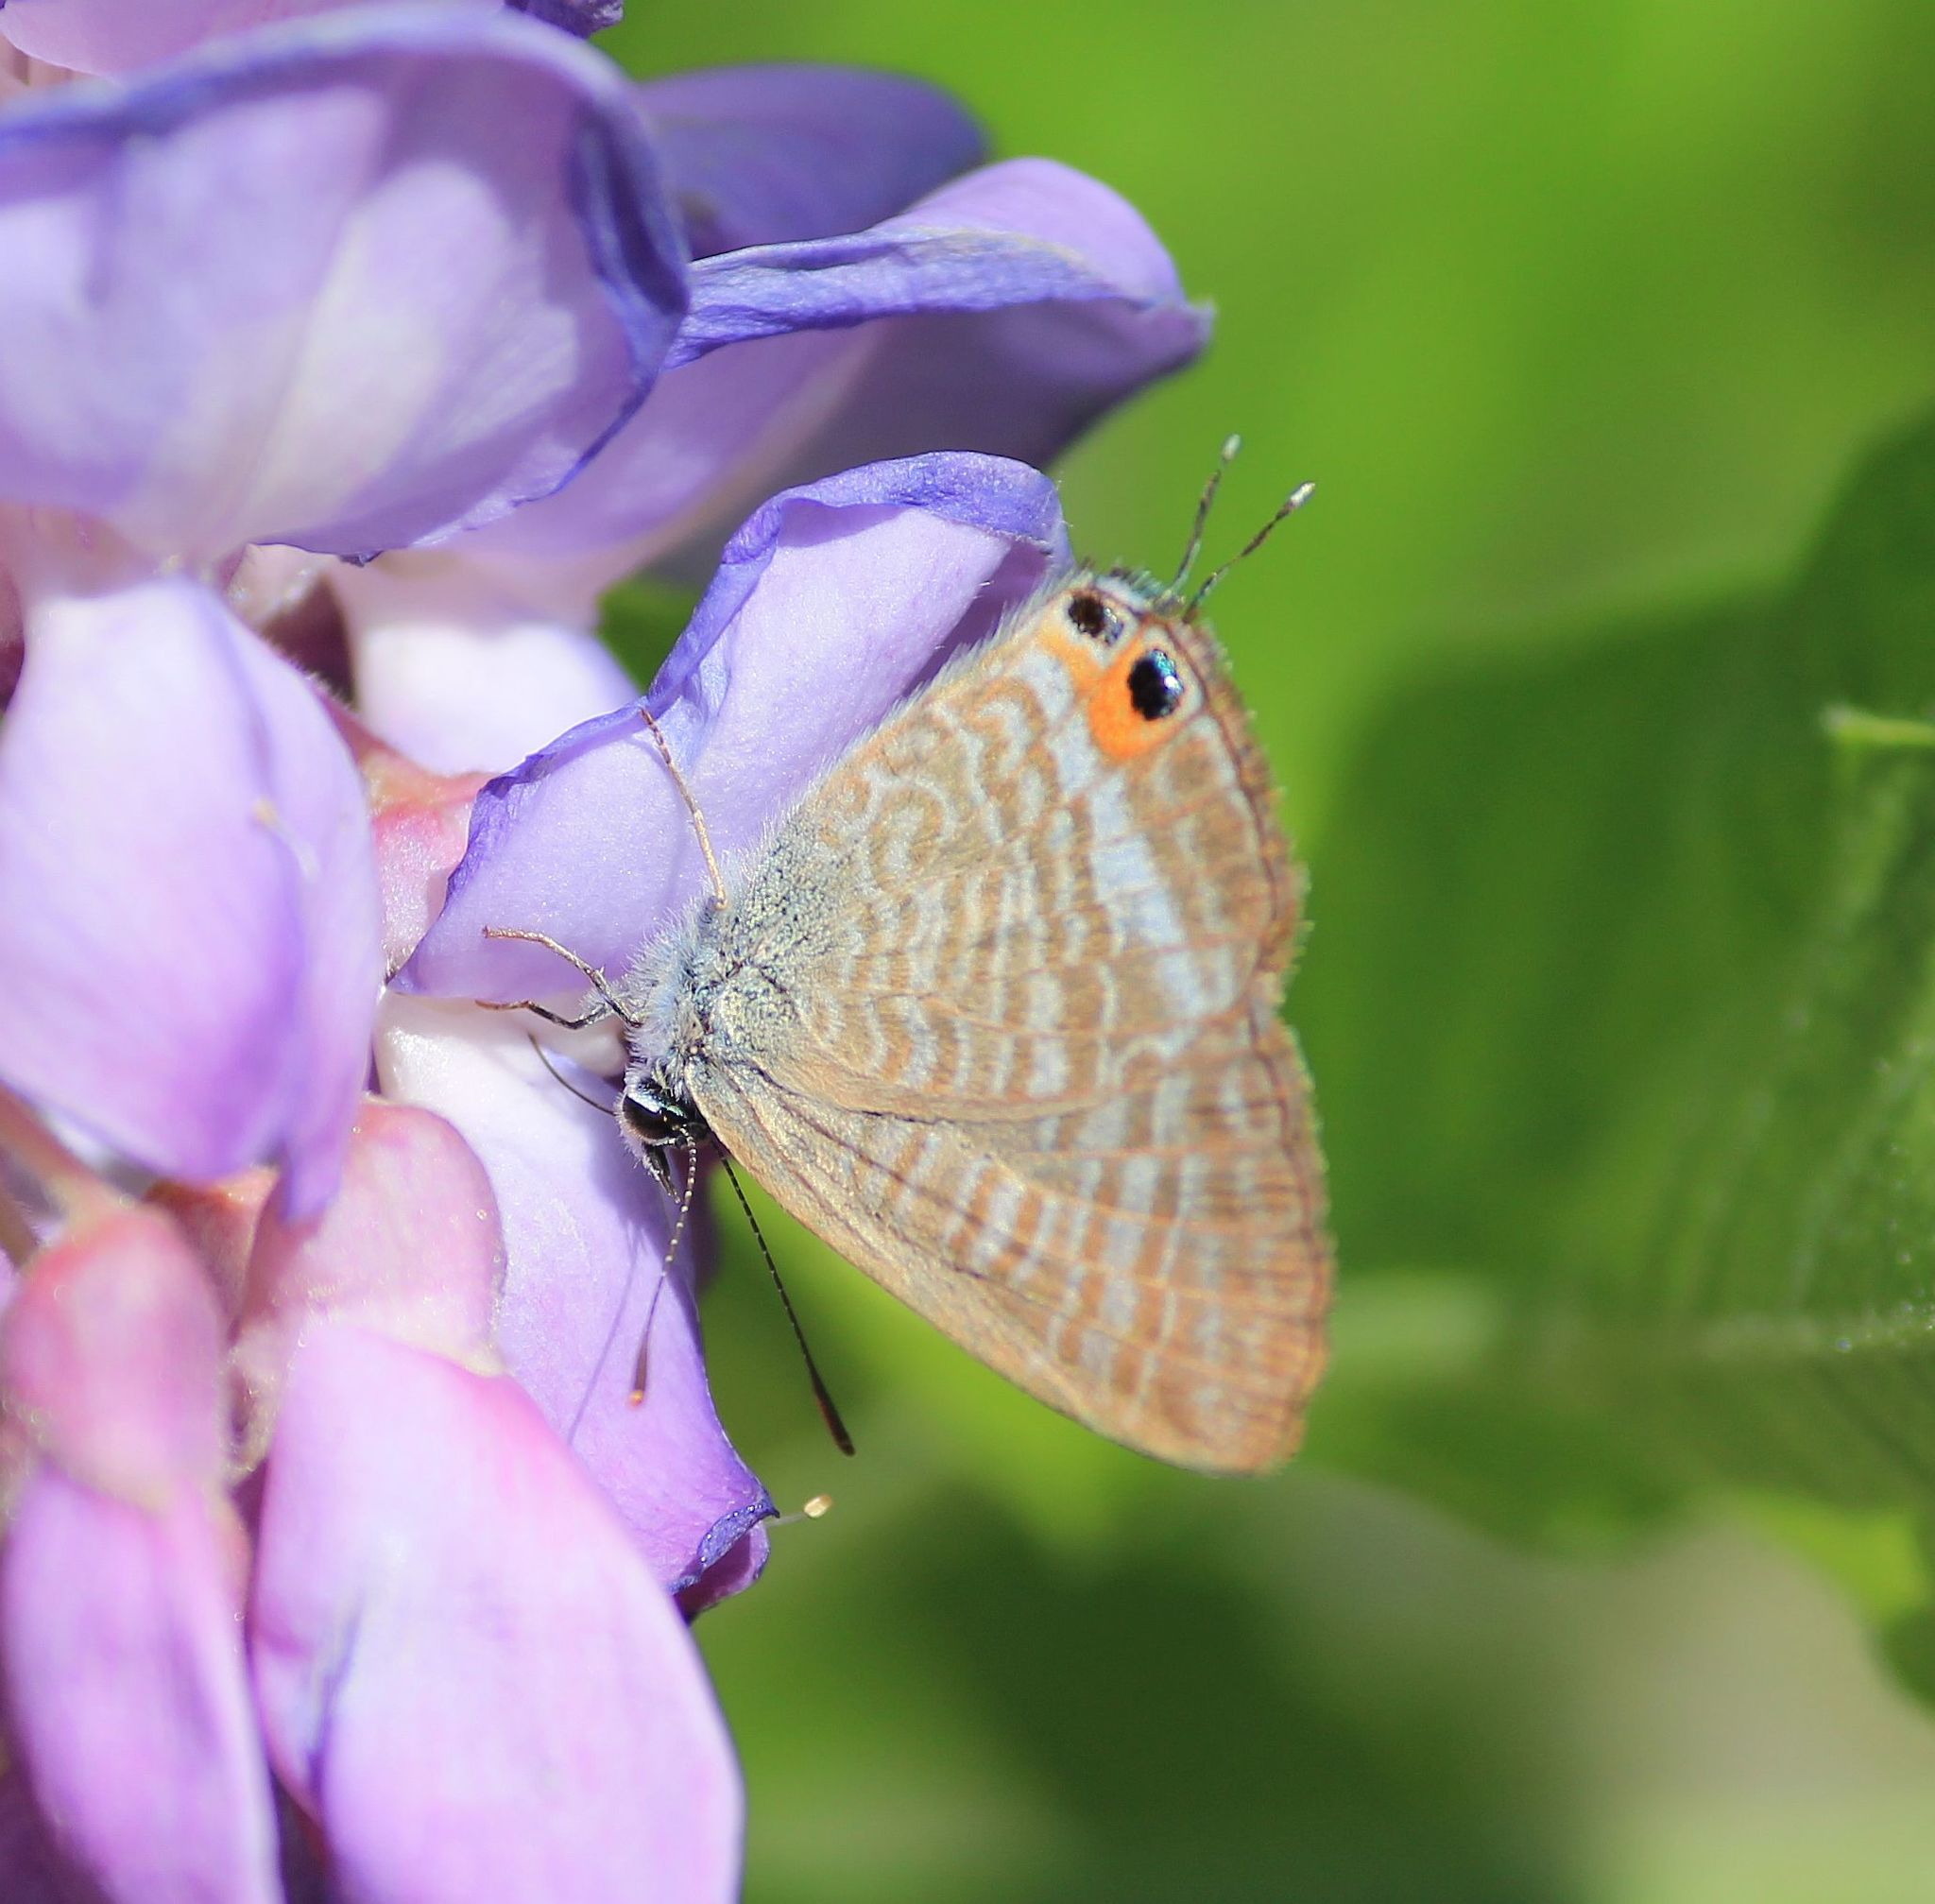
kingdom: Animalia
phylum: Arthropoda
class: Insecta
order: Lepidoptera
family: Lycaenidae
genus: Lampides
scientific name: Lampides boeticus
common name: Long-tailed blue
